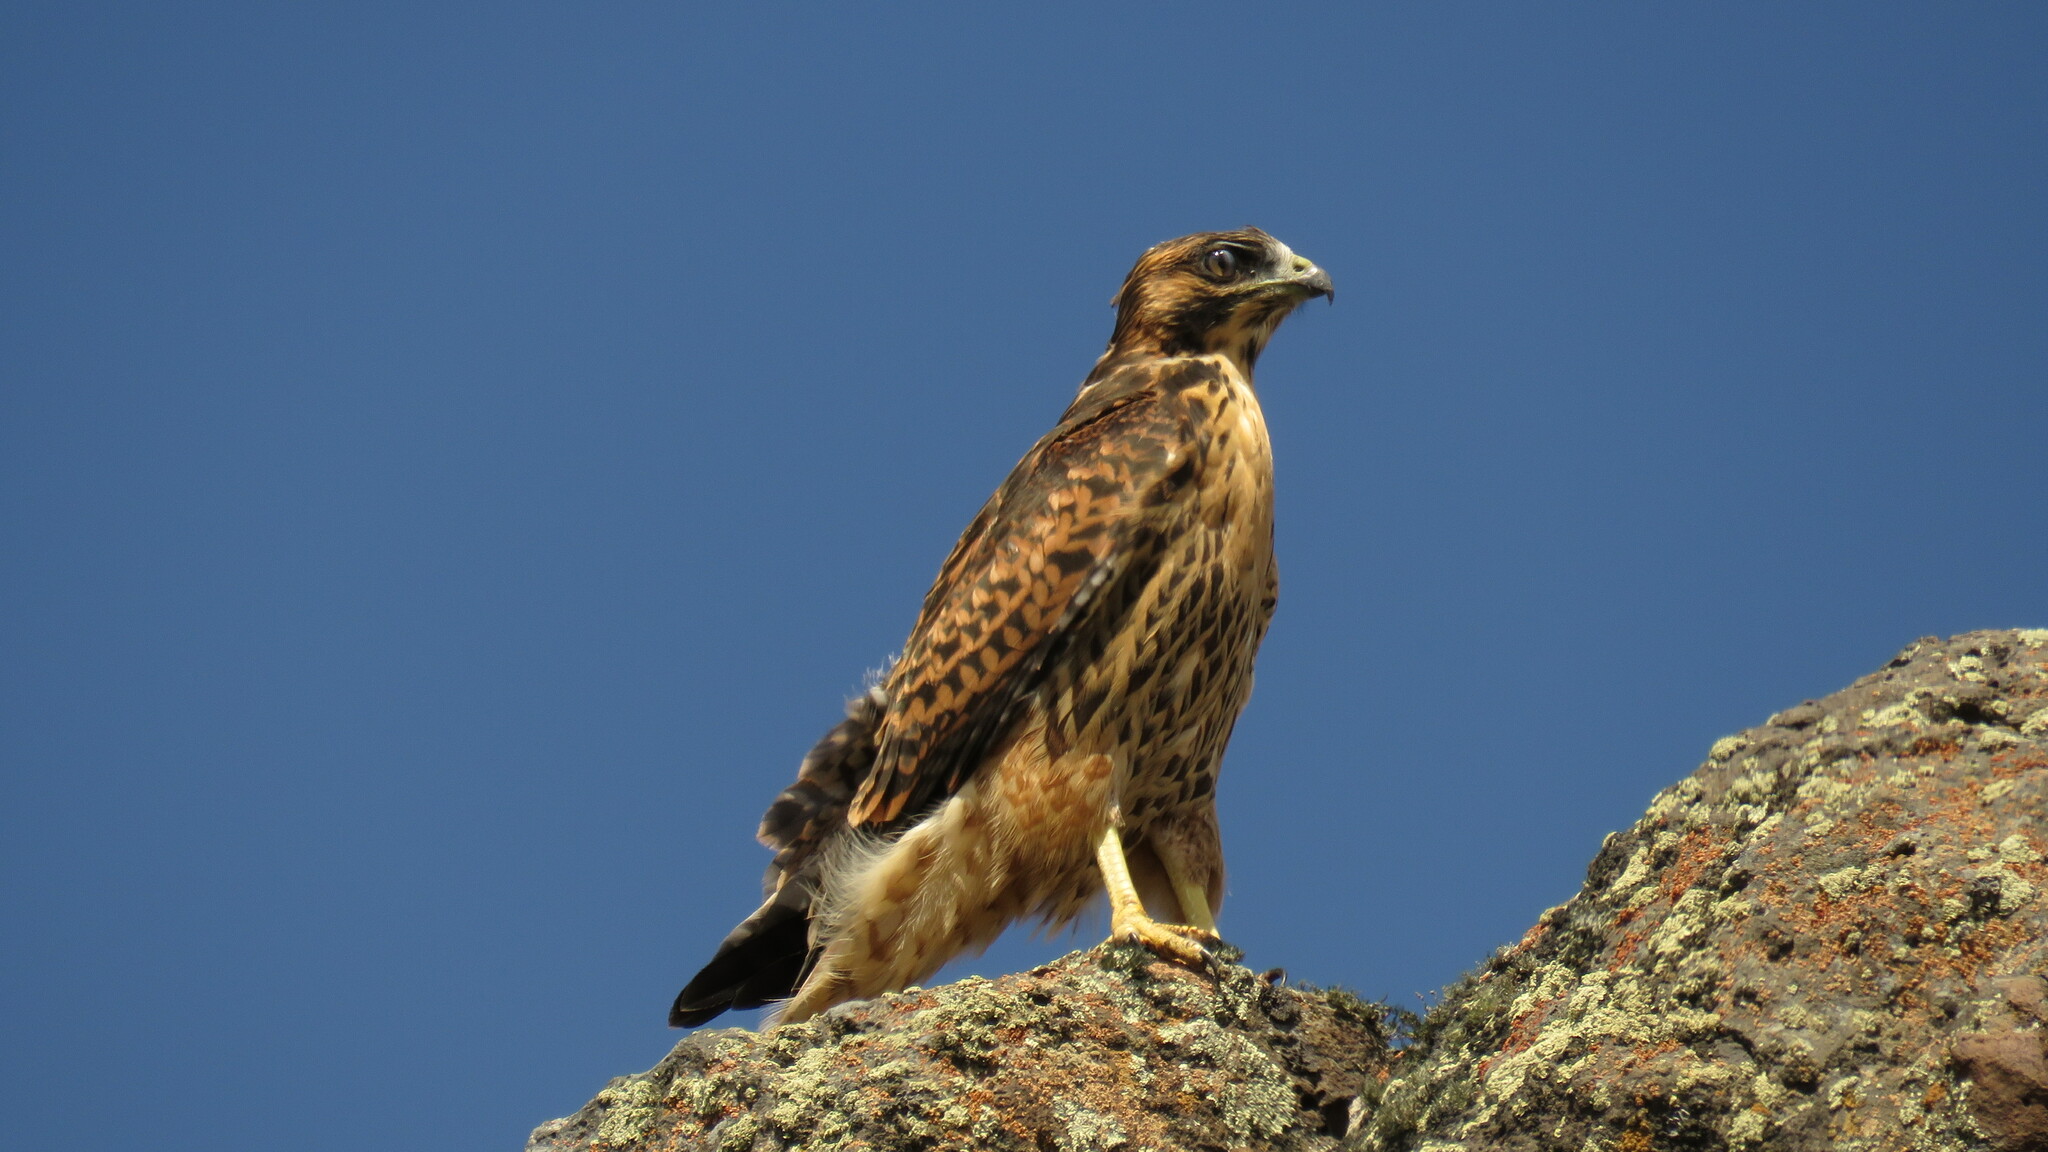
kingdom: Animalia
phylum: Chordata
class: Aves
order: Accipitriformes
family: Accipitridae
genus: Buteo
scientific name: Buteo polyosoma
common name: Variable hawk
